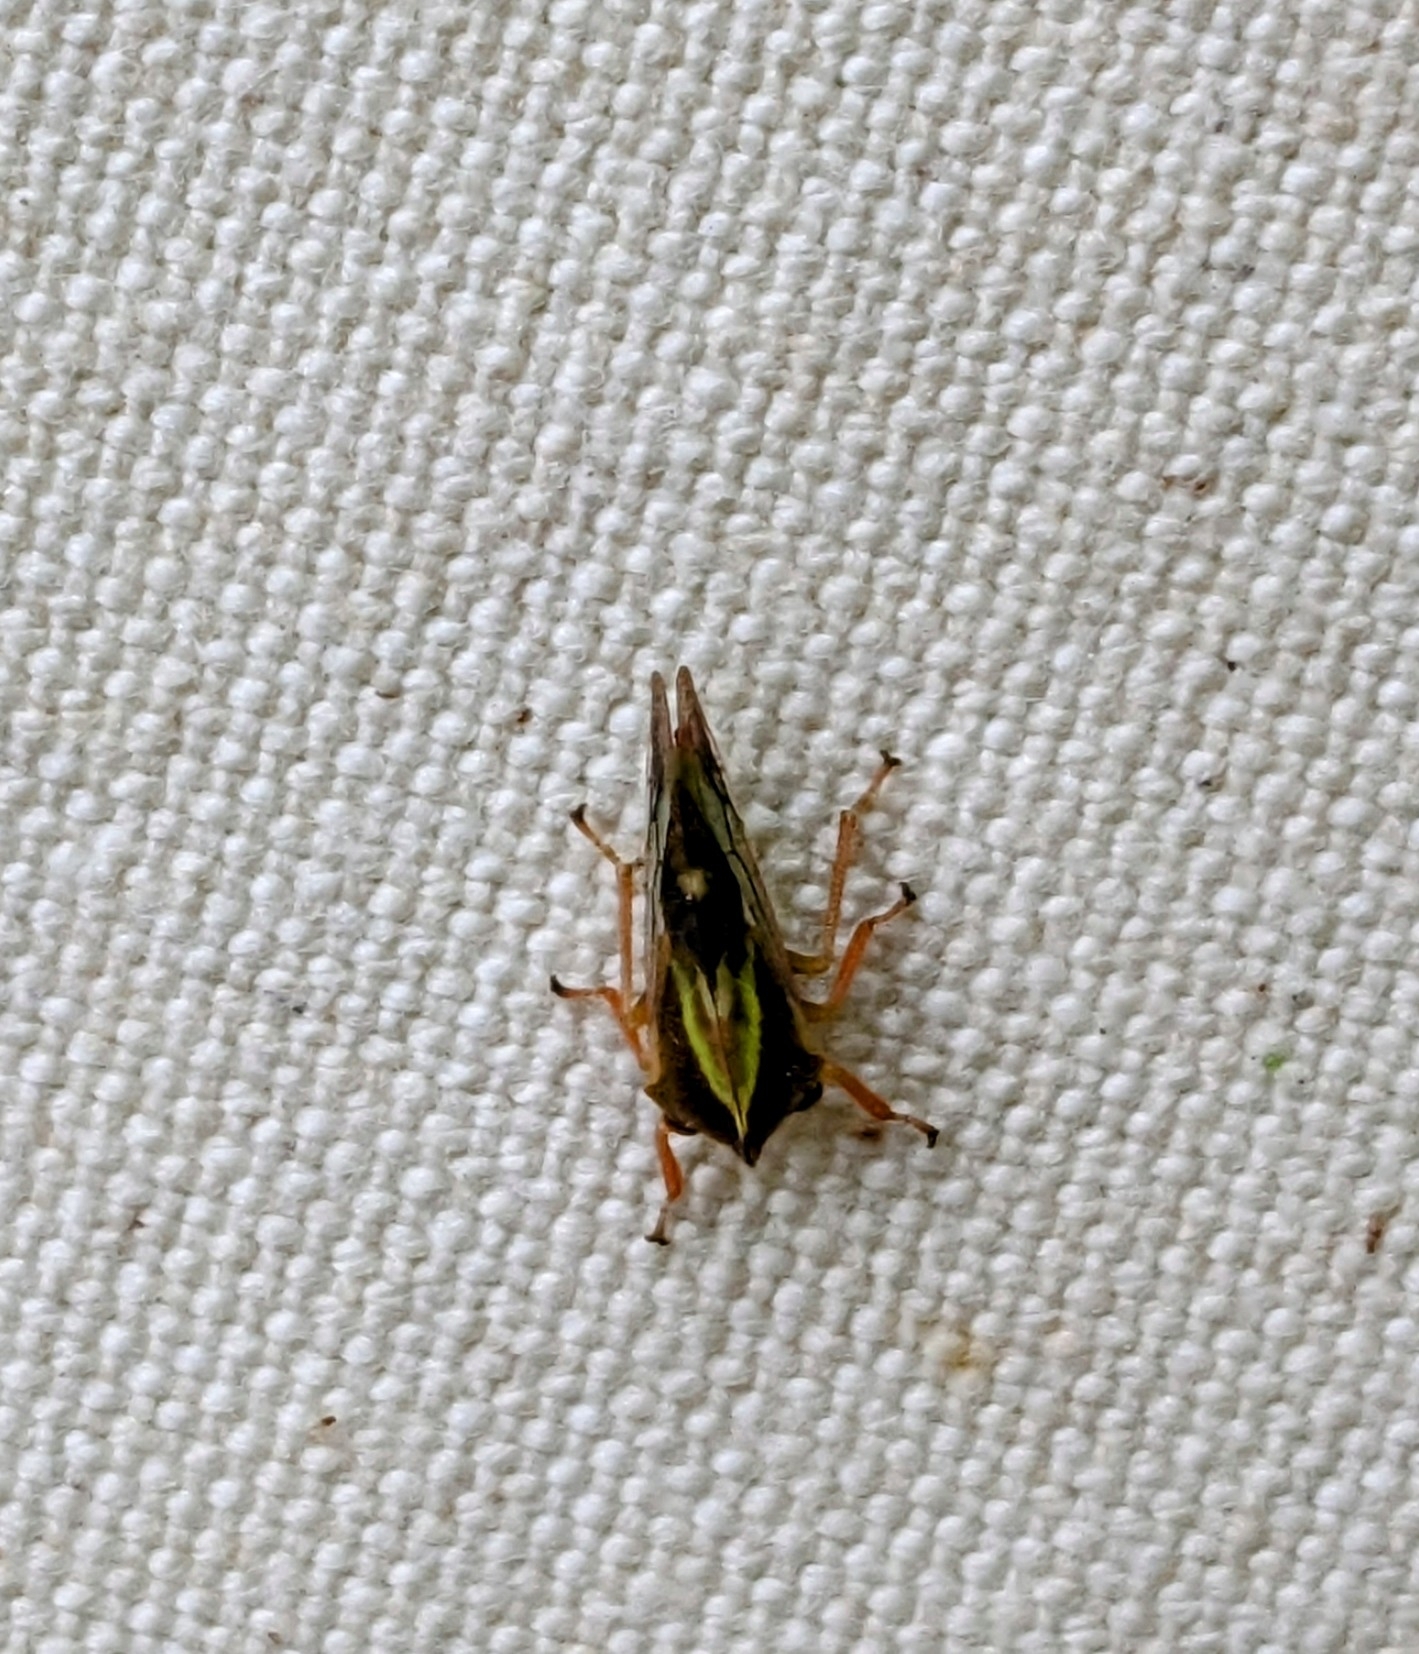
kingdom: Animalia
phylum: Arthropoda
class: Insecta
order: Hemiptera
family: Membracidae
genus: Smilia
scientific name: Smilia camelus
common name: Camel treehopper
